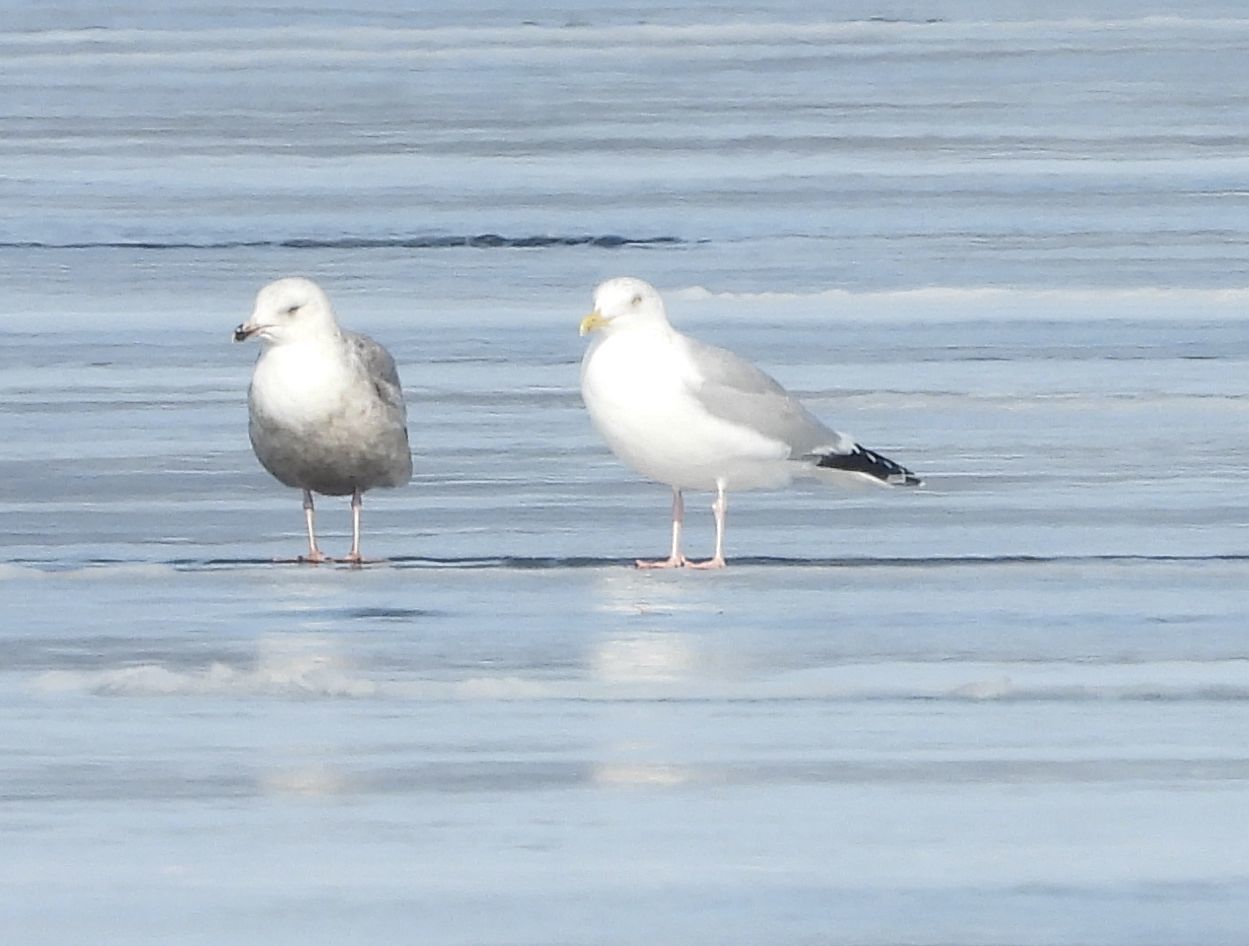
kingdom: Animalia
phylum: Chordata
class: Aves
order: Charadriiformes
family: Laridae
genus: Larus
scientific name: Larus argentatus
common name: Herring gull
